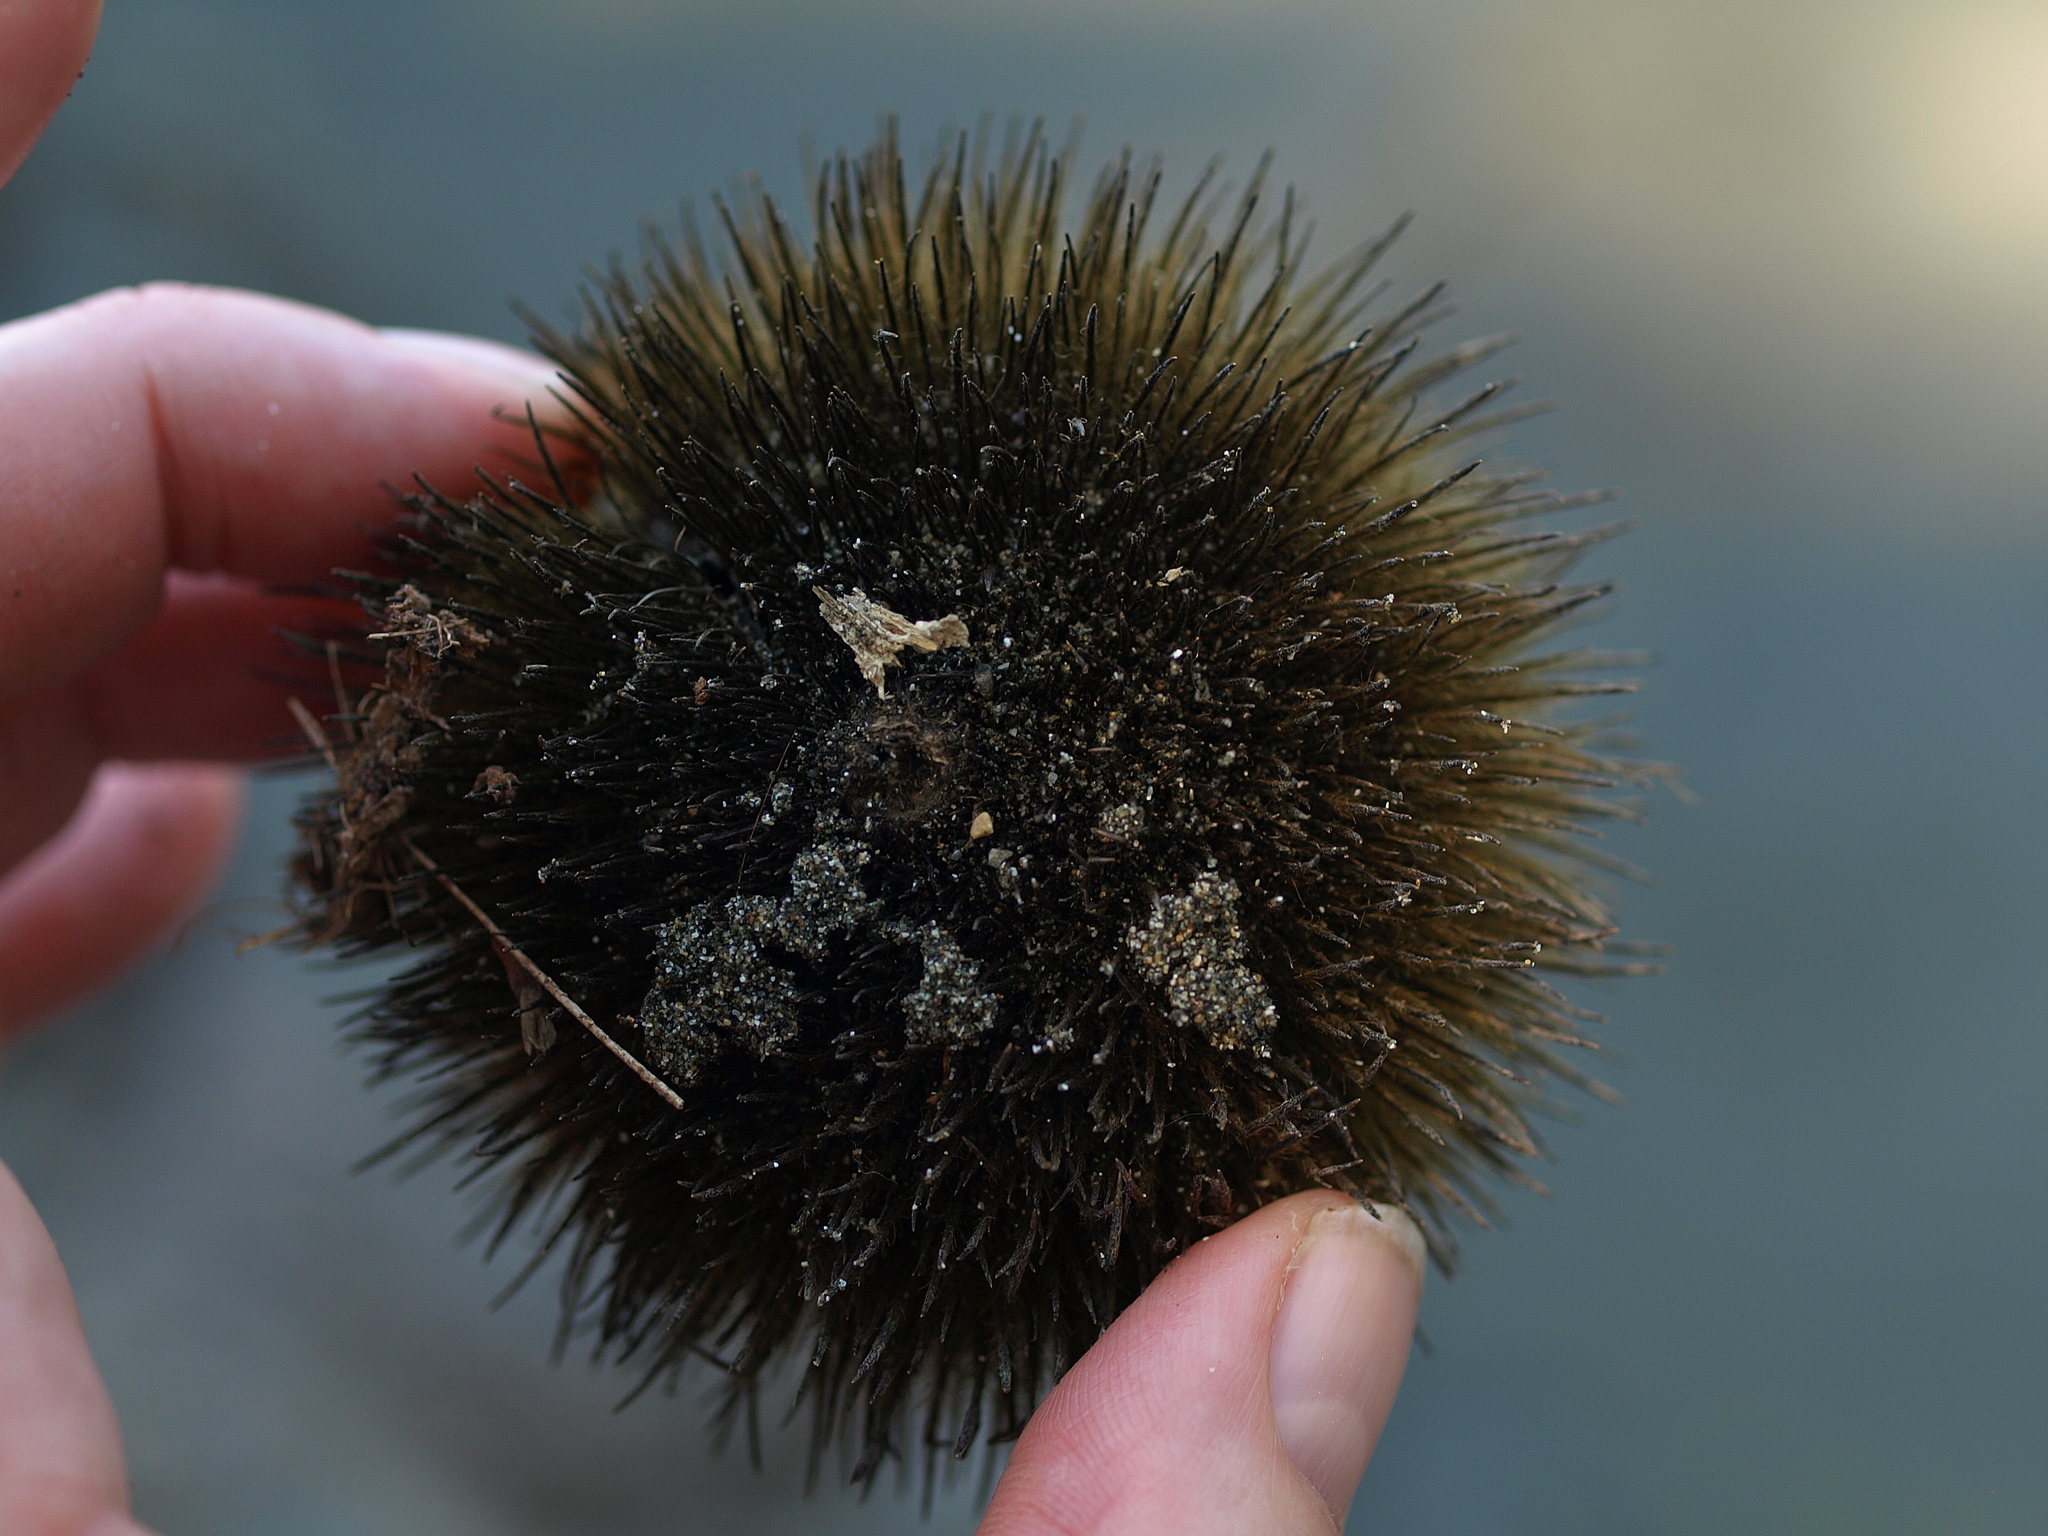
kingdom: Plantae
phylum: Tracheophyta
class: Magnoliopsida
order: Malvales
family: Malvaceae
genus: Apeiba
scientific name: Apeiba tibourbou
